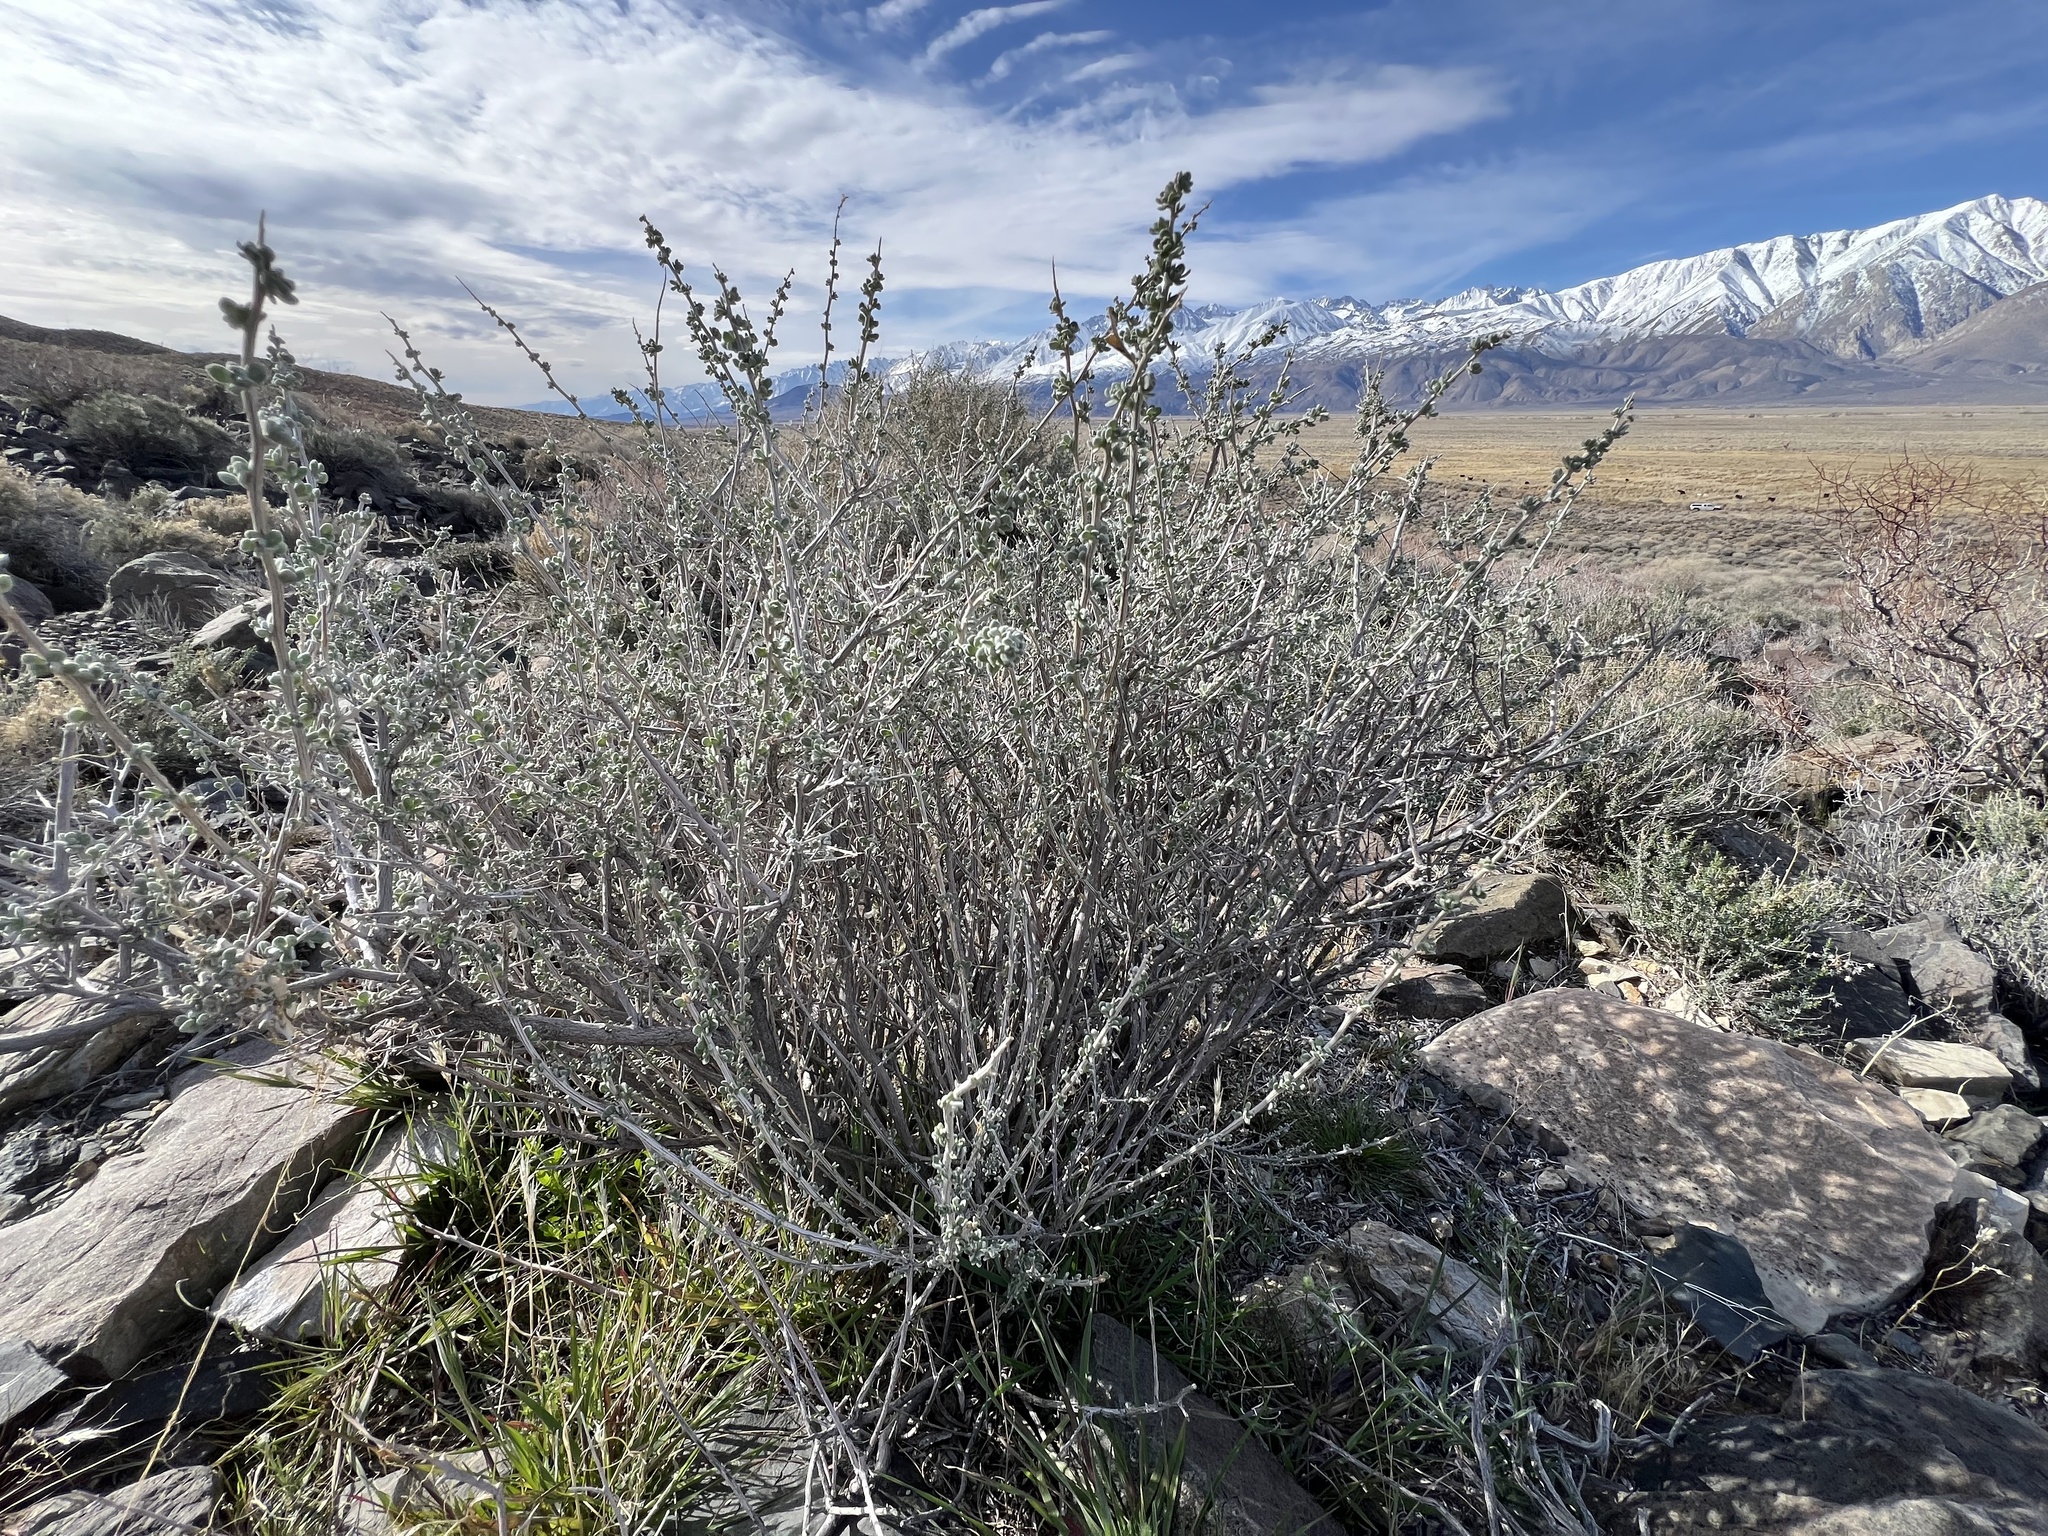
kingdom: Plantae
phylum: Tracheophyta
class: Magnoliopsida
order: Caryophyllales
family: Amaranthaceae
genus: Grayia
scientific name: Grayia spinosa
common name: Spiny hopsage
